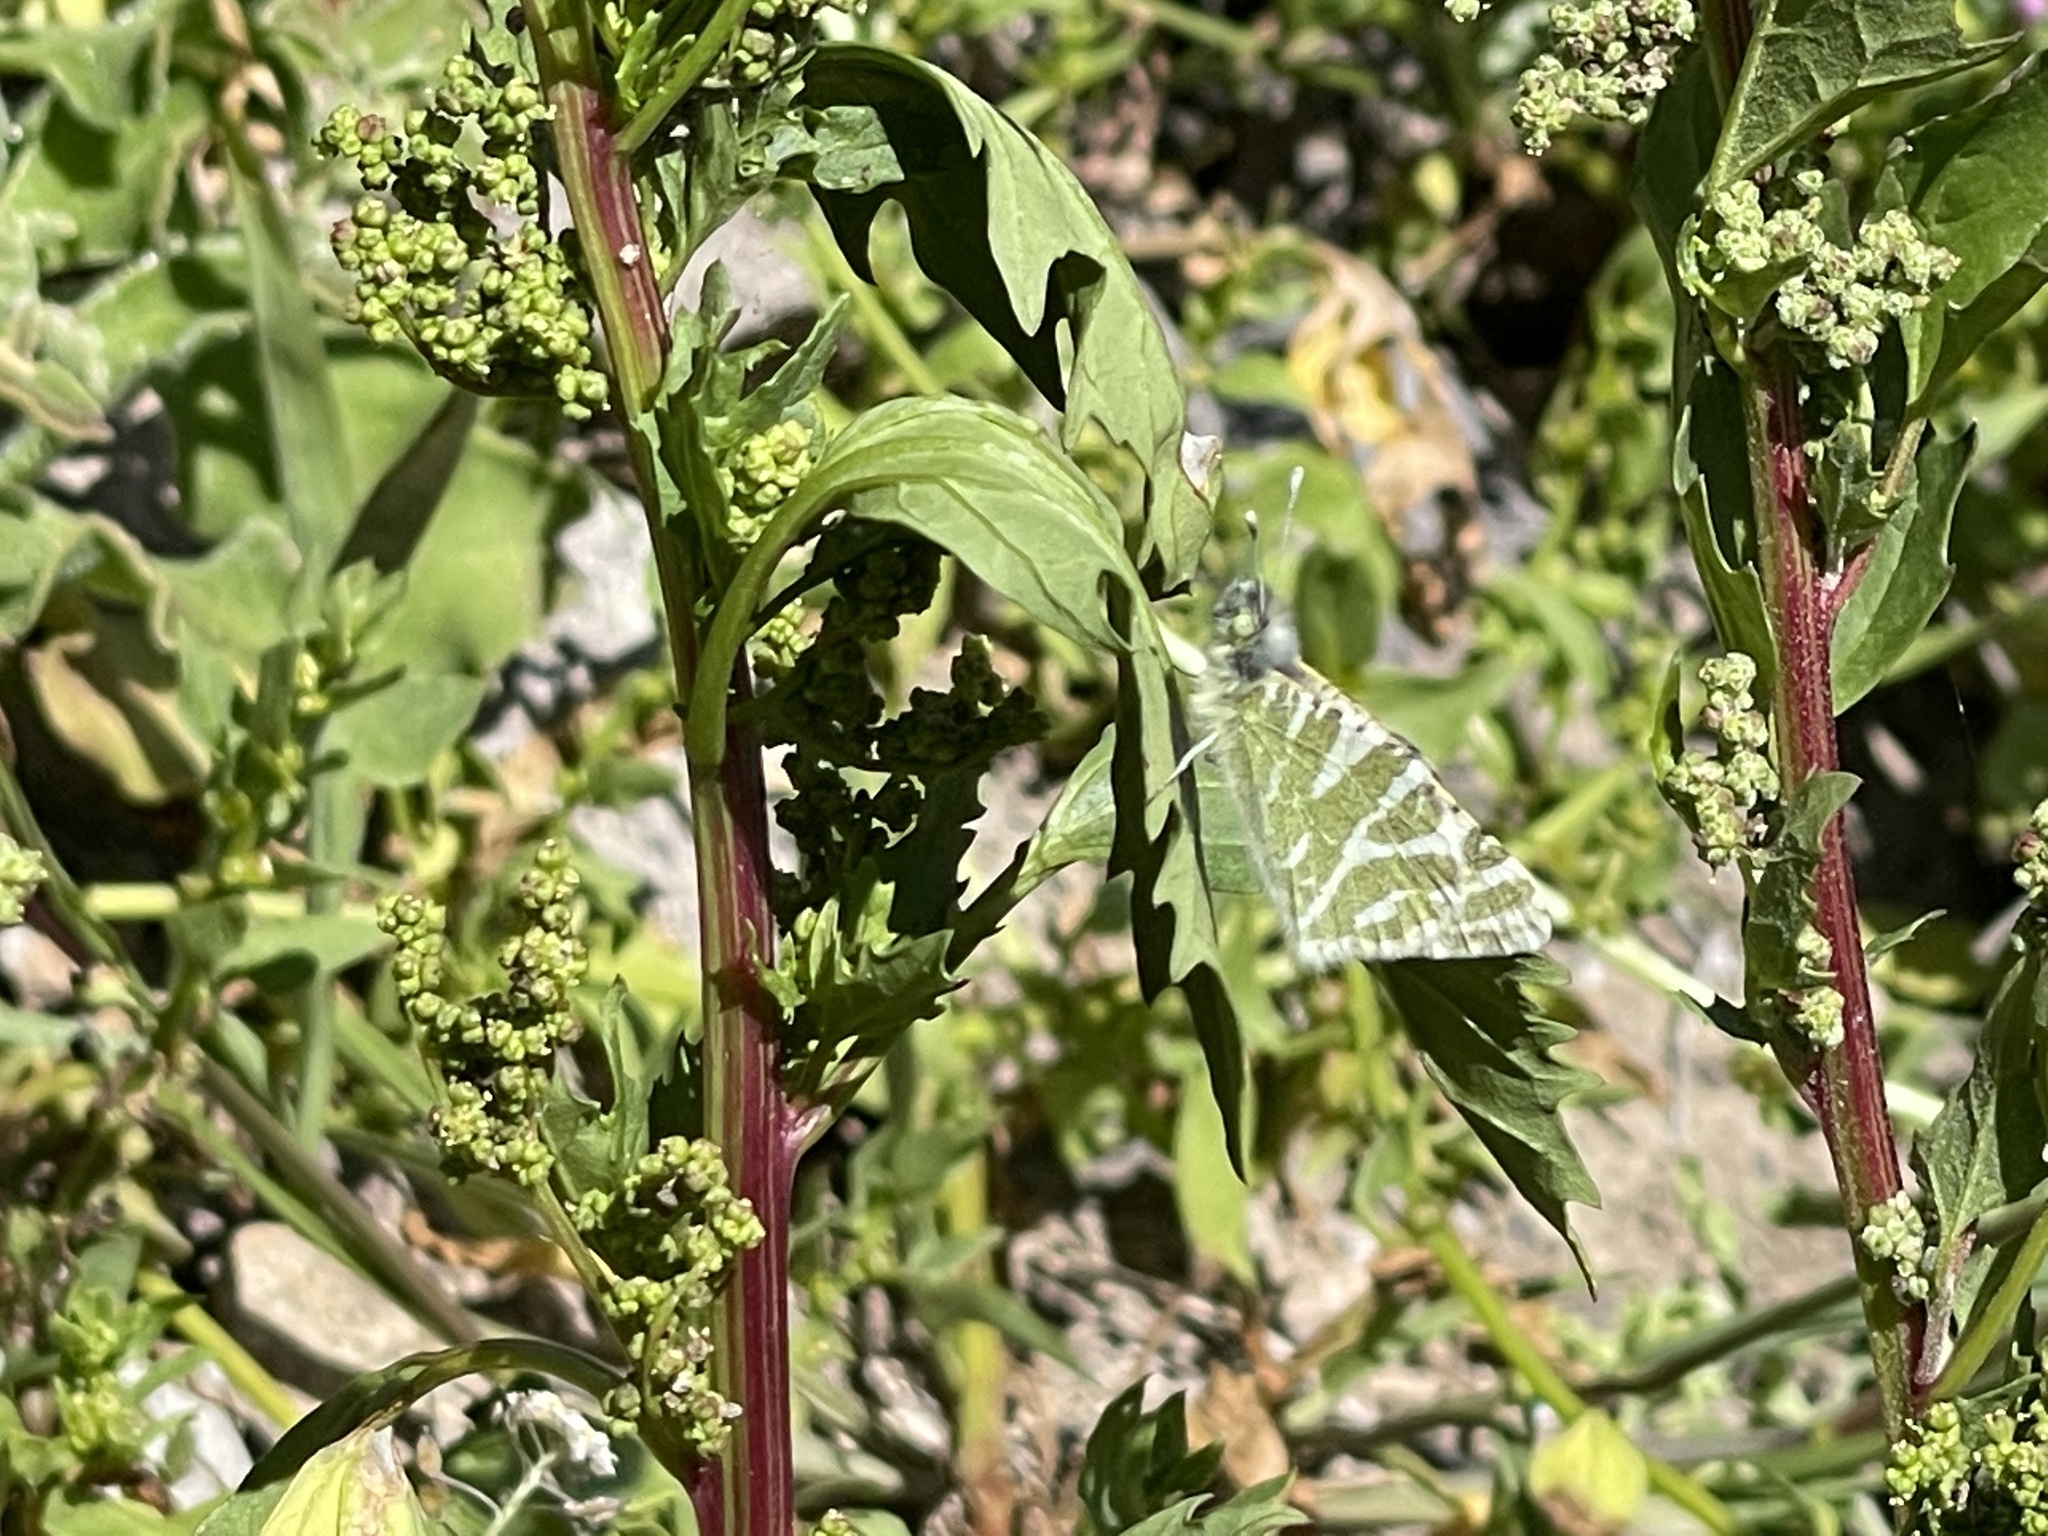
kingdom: Animalia
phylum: Arthropoda
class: Insecta
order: Lepidoptera
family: Pieridae
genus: Euchloe
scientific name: Euchloe grancanariensis
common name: Gran canaria green-striped white
